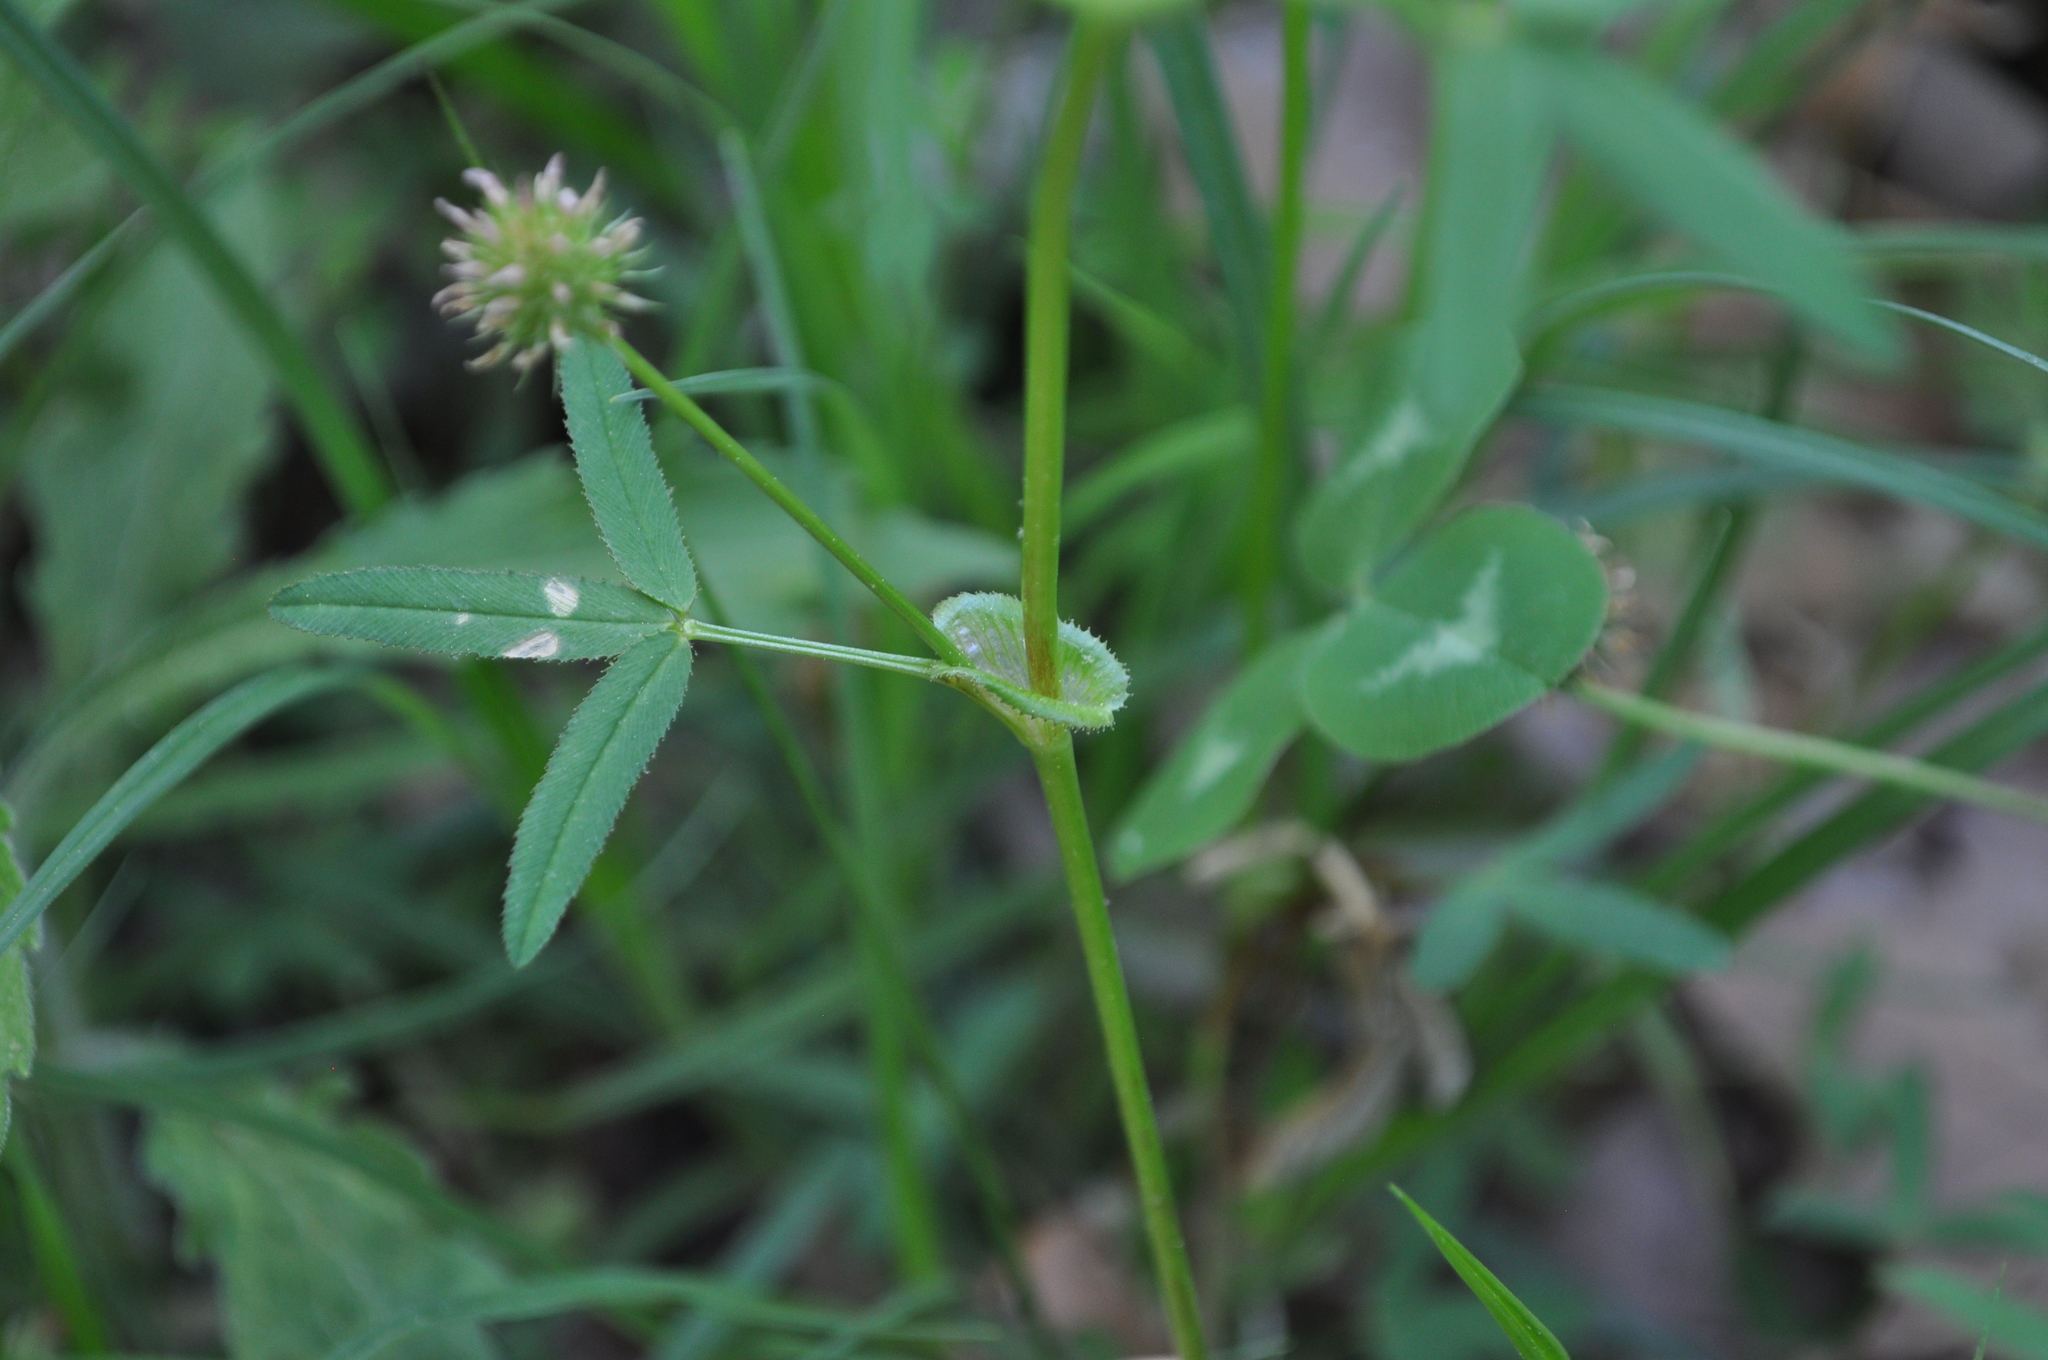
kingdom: Plantae
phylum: Tracheophyta
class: Magnoliopsida
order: Fabales
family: Fabaceae
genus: Trifolium
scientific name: Trifolium strictum
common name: Upright clover
